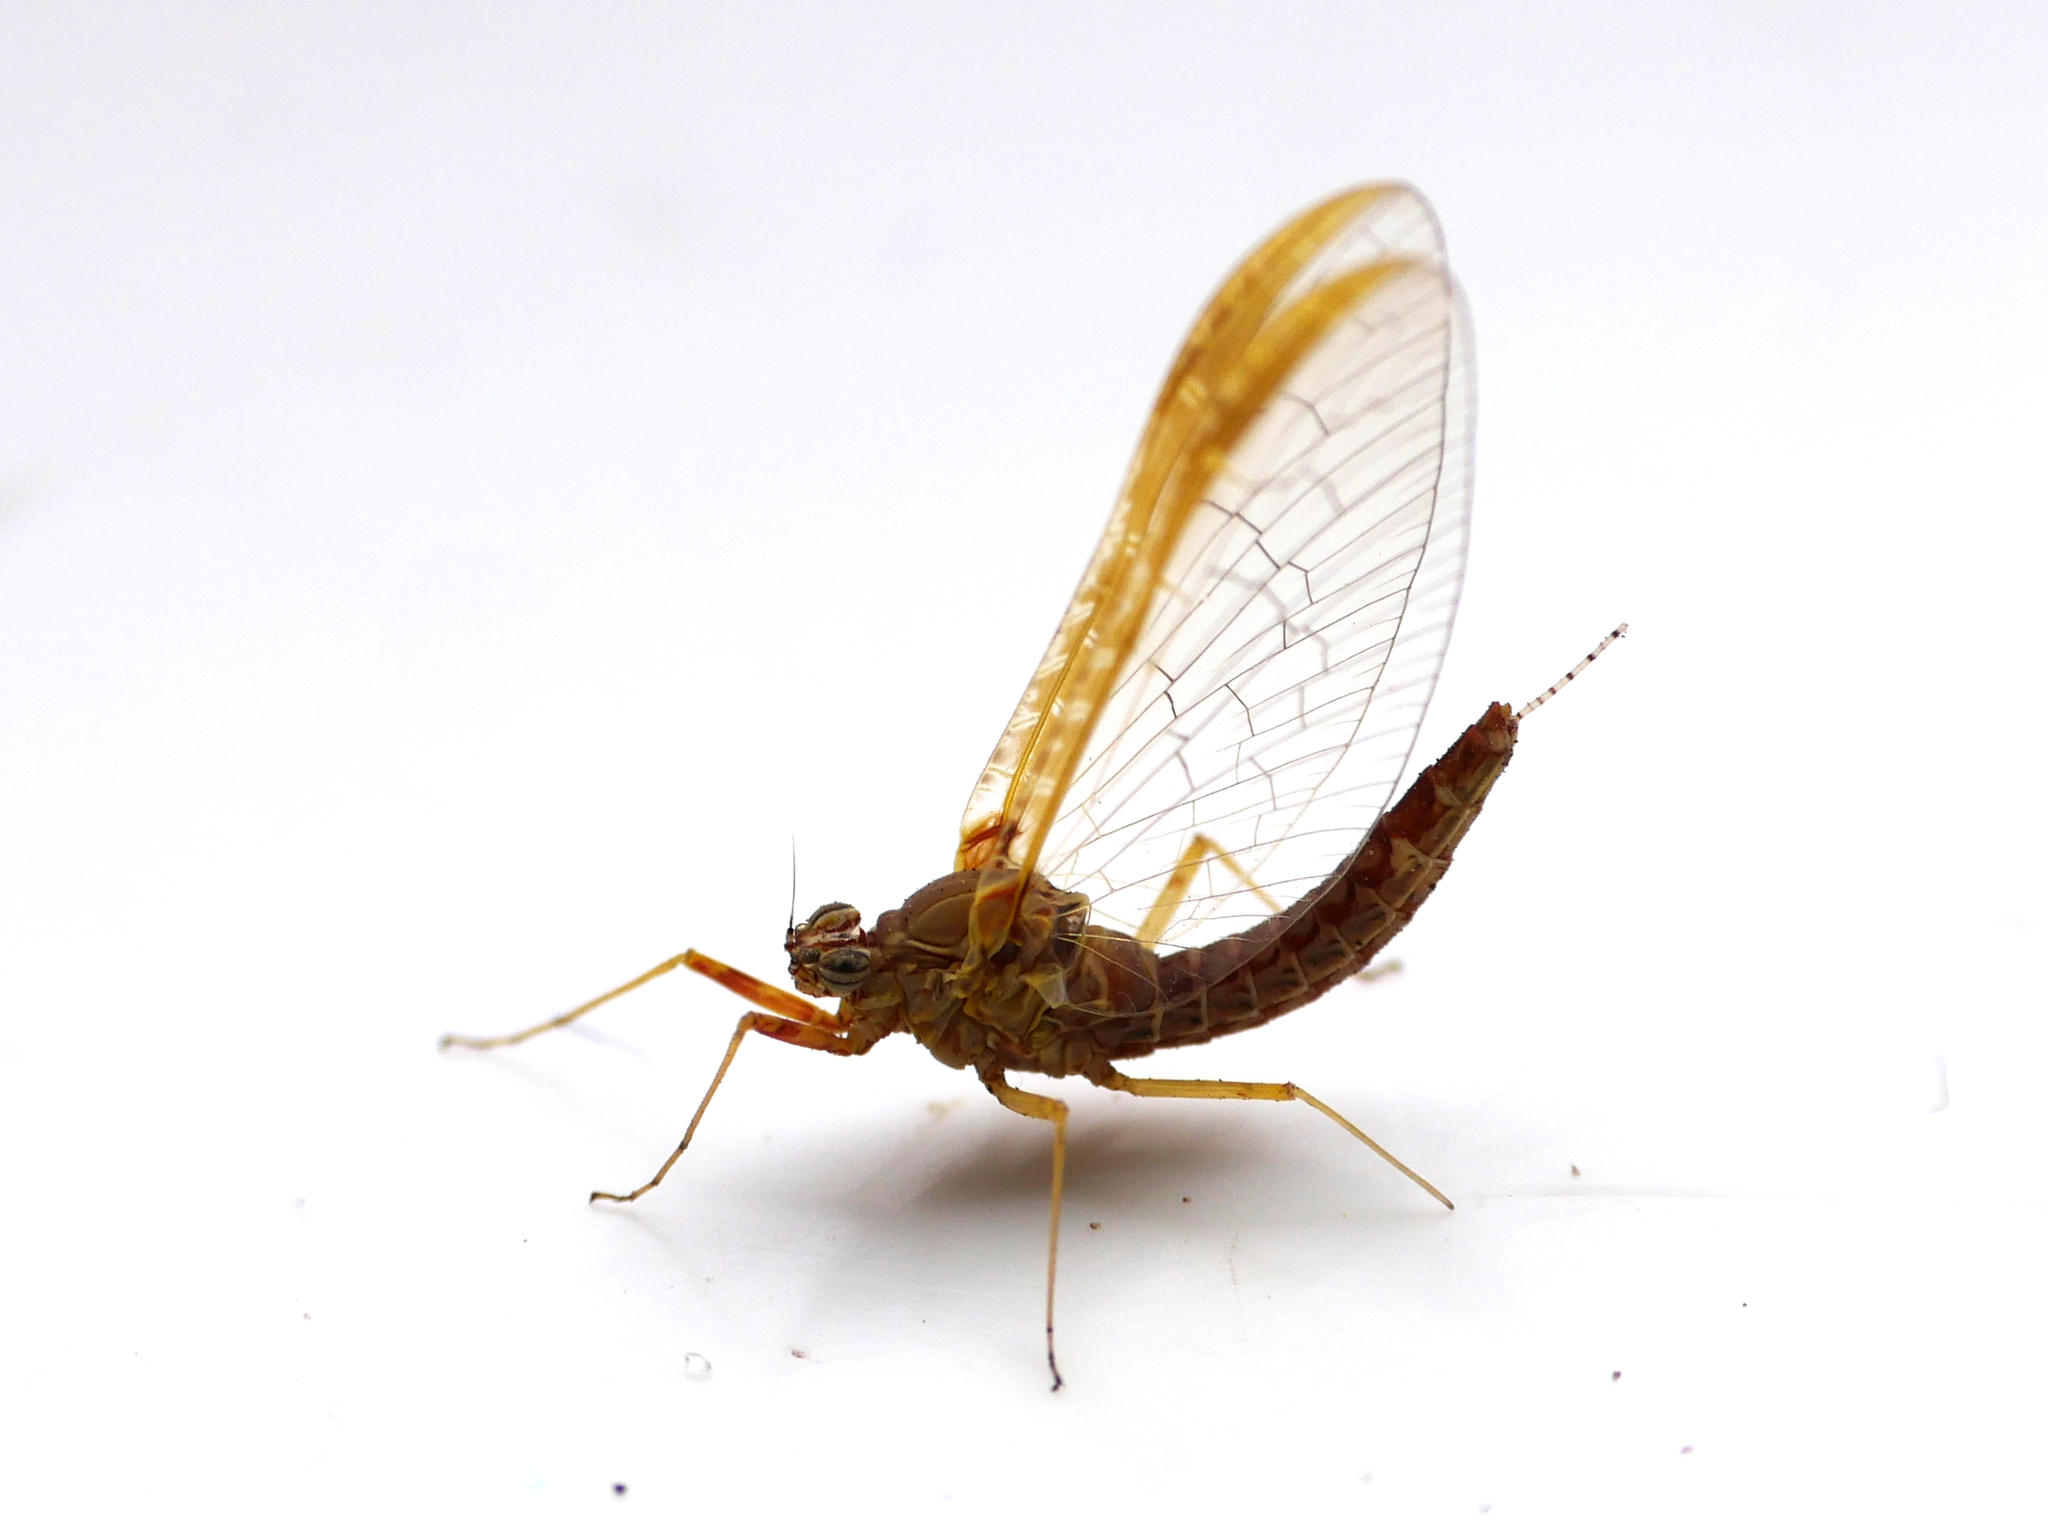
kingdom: Animalia
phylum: Arthropoda
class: Insecta
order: Ephemeroptera
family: Baetidae
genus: Cloeon
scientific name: Cloeon dipterum
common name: Pond olive
